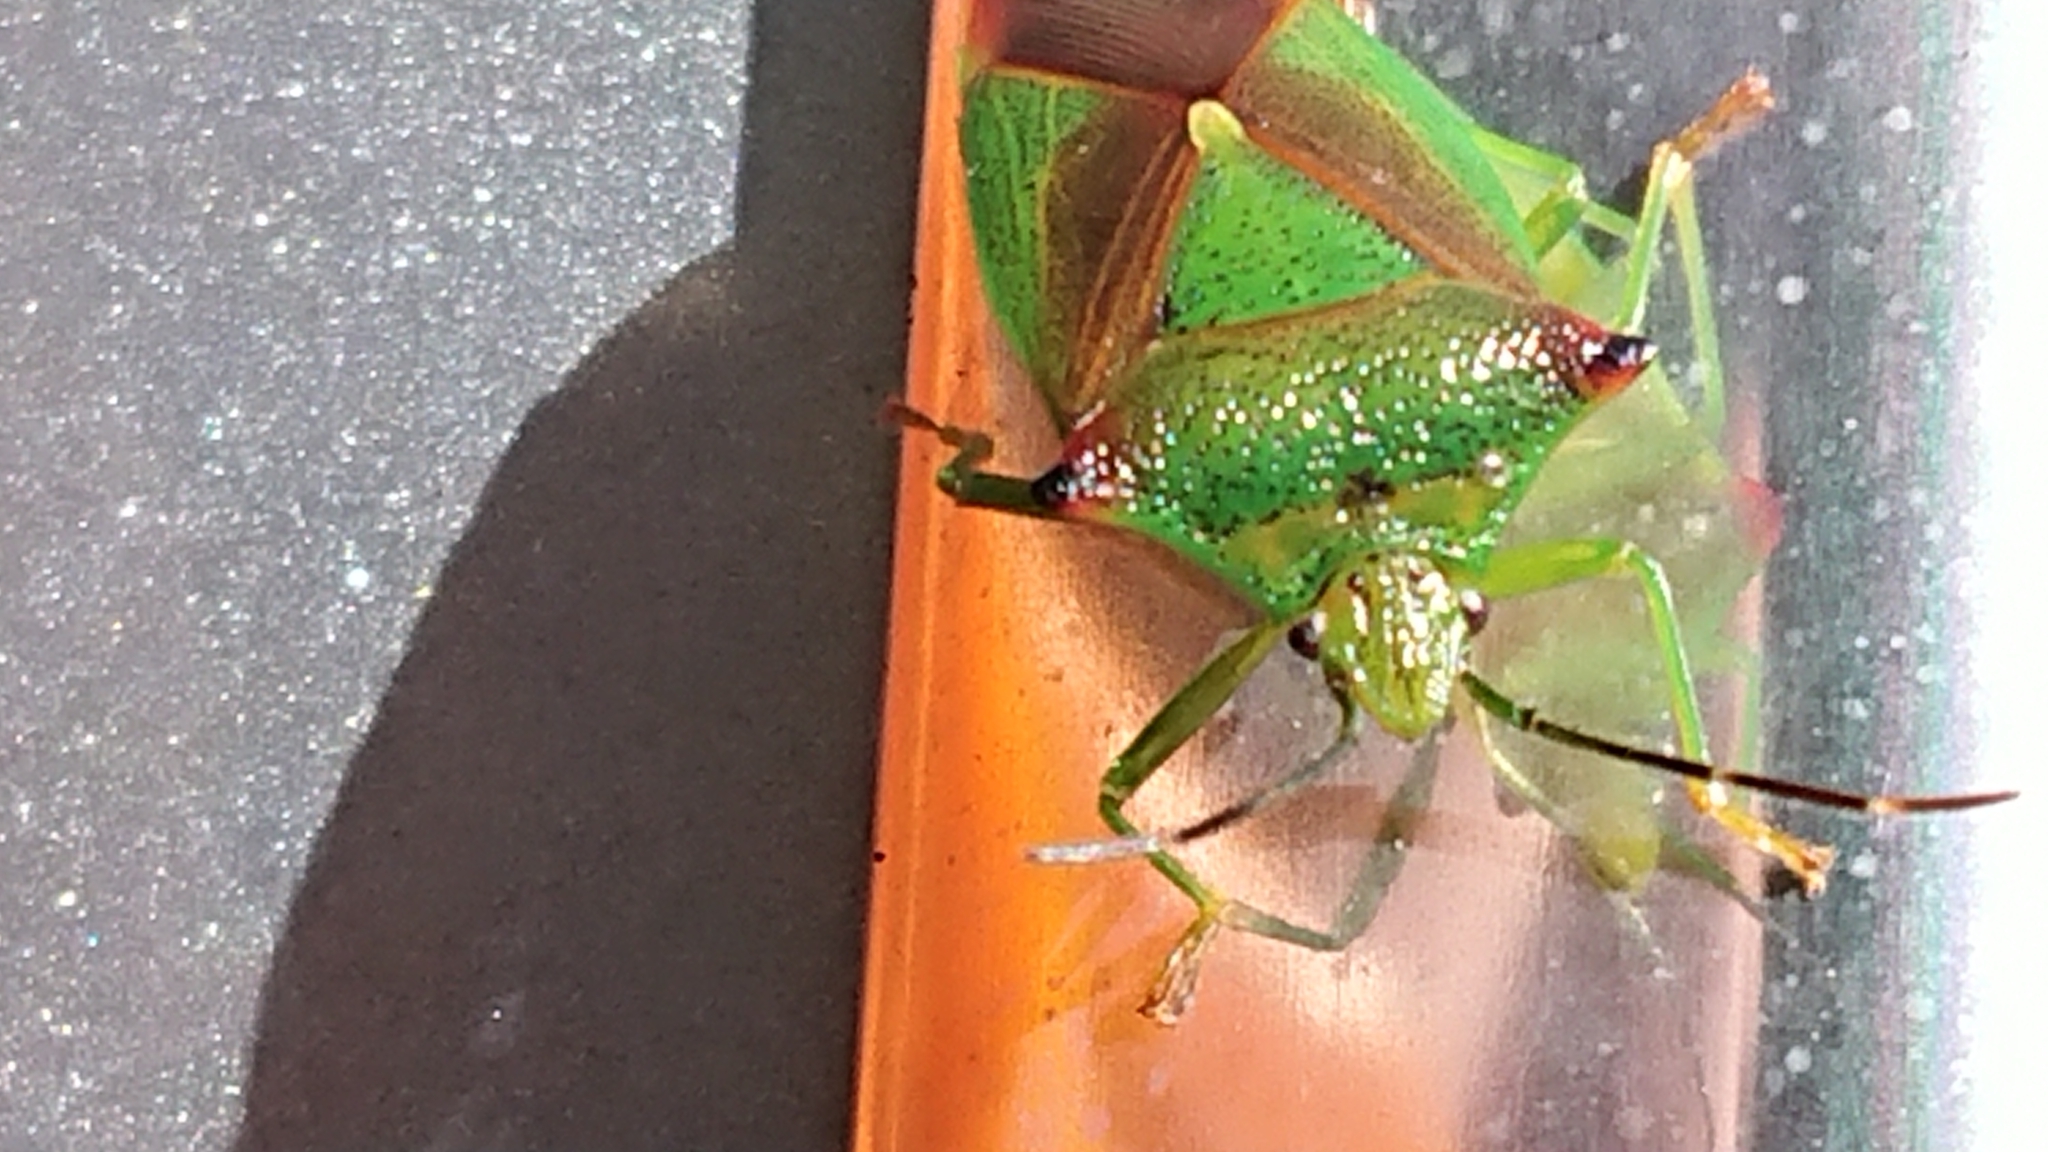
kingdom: Animalia
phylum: Arthropoda
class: Insecta
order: Hemiptera
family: Acanthosomatidae
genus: Acanthosoma
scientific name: Acanthosoma haemorrhoidale
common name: Hawthorn shieldbug
